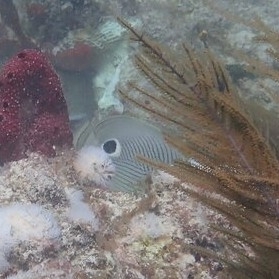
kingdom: Animalia
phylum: Chordata
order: Perciformes
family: Chaetodontidae
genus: Chaetodon
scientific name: Chaetodon capistratus
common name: Kete
